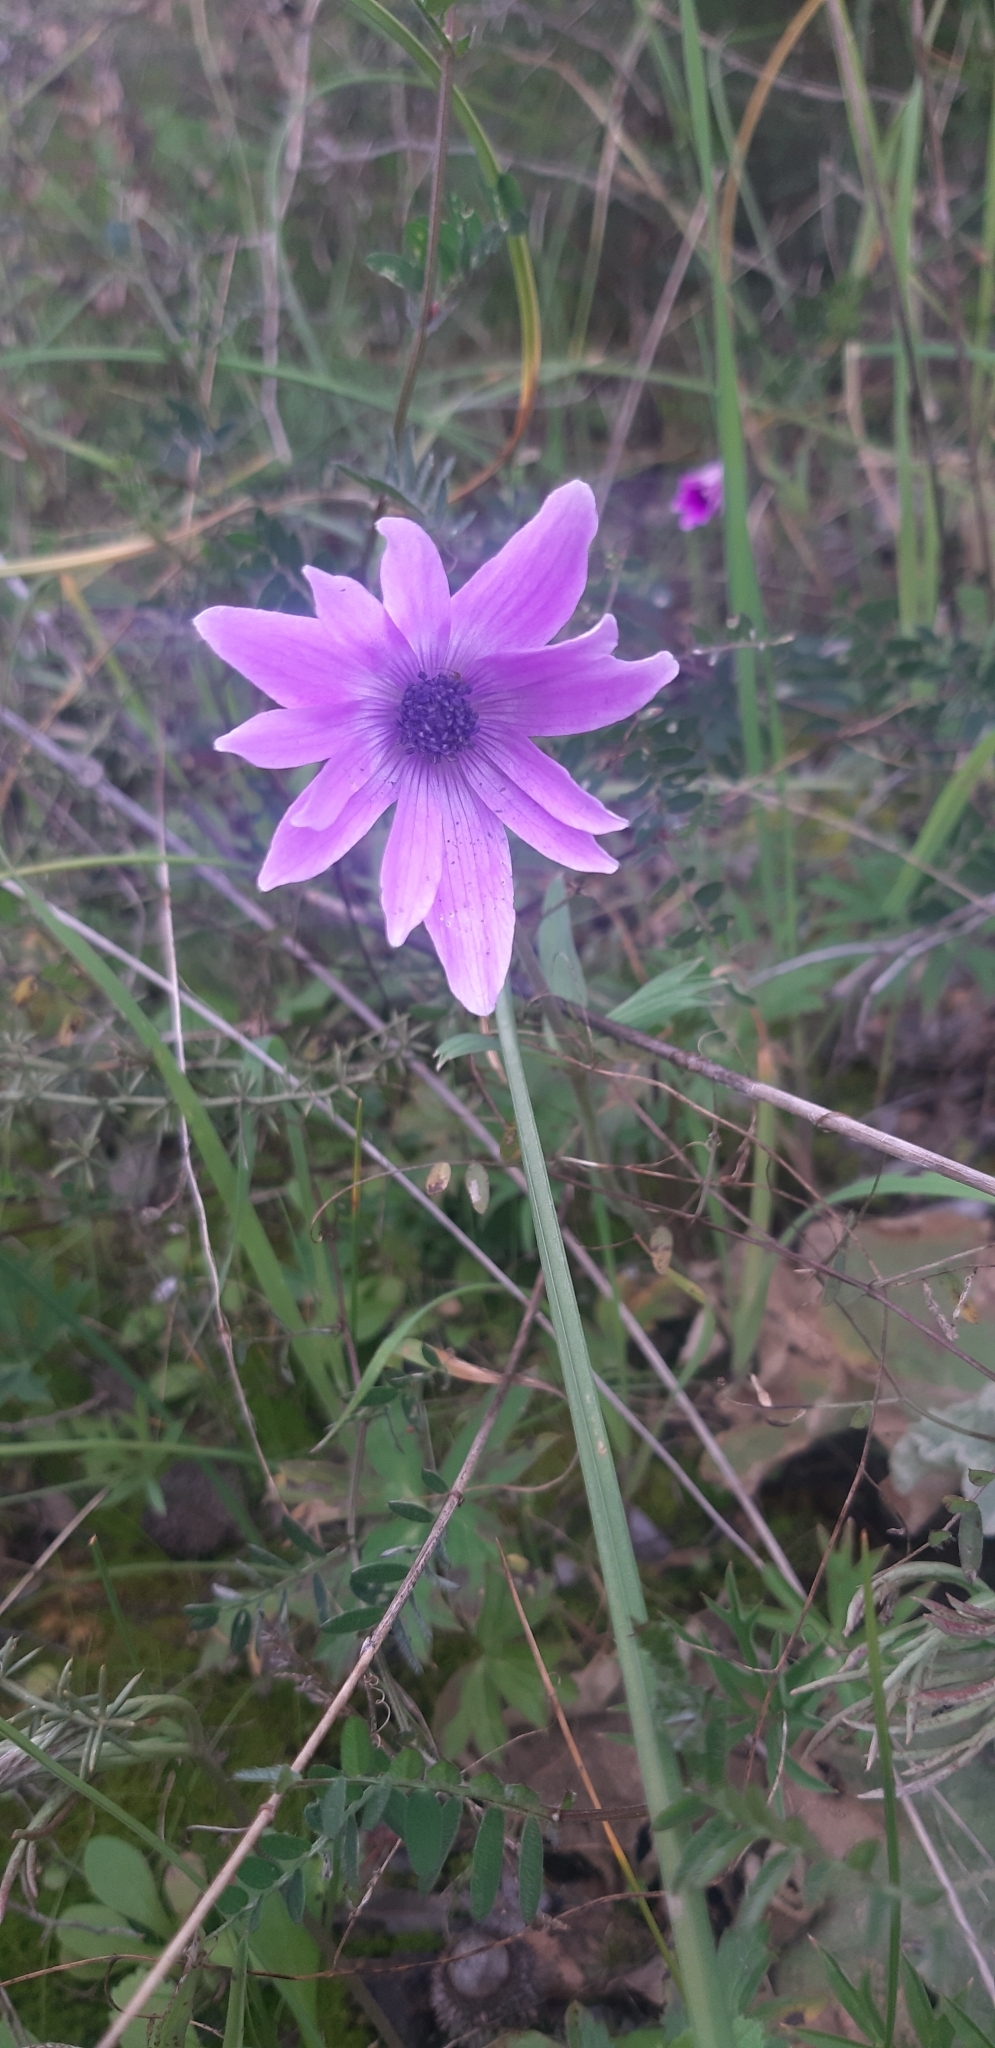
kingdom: Plantae
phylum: Tracheophyta
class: Magnoliopsida
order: Ranunculales
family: Ranunculaceae
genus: Anemone
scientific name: Anemone hortensis
